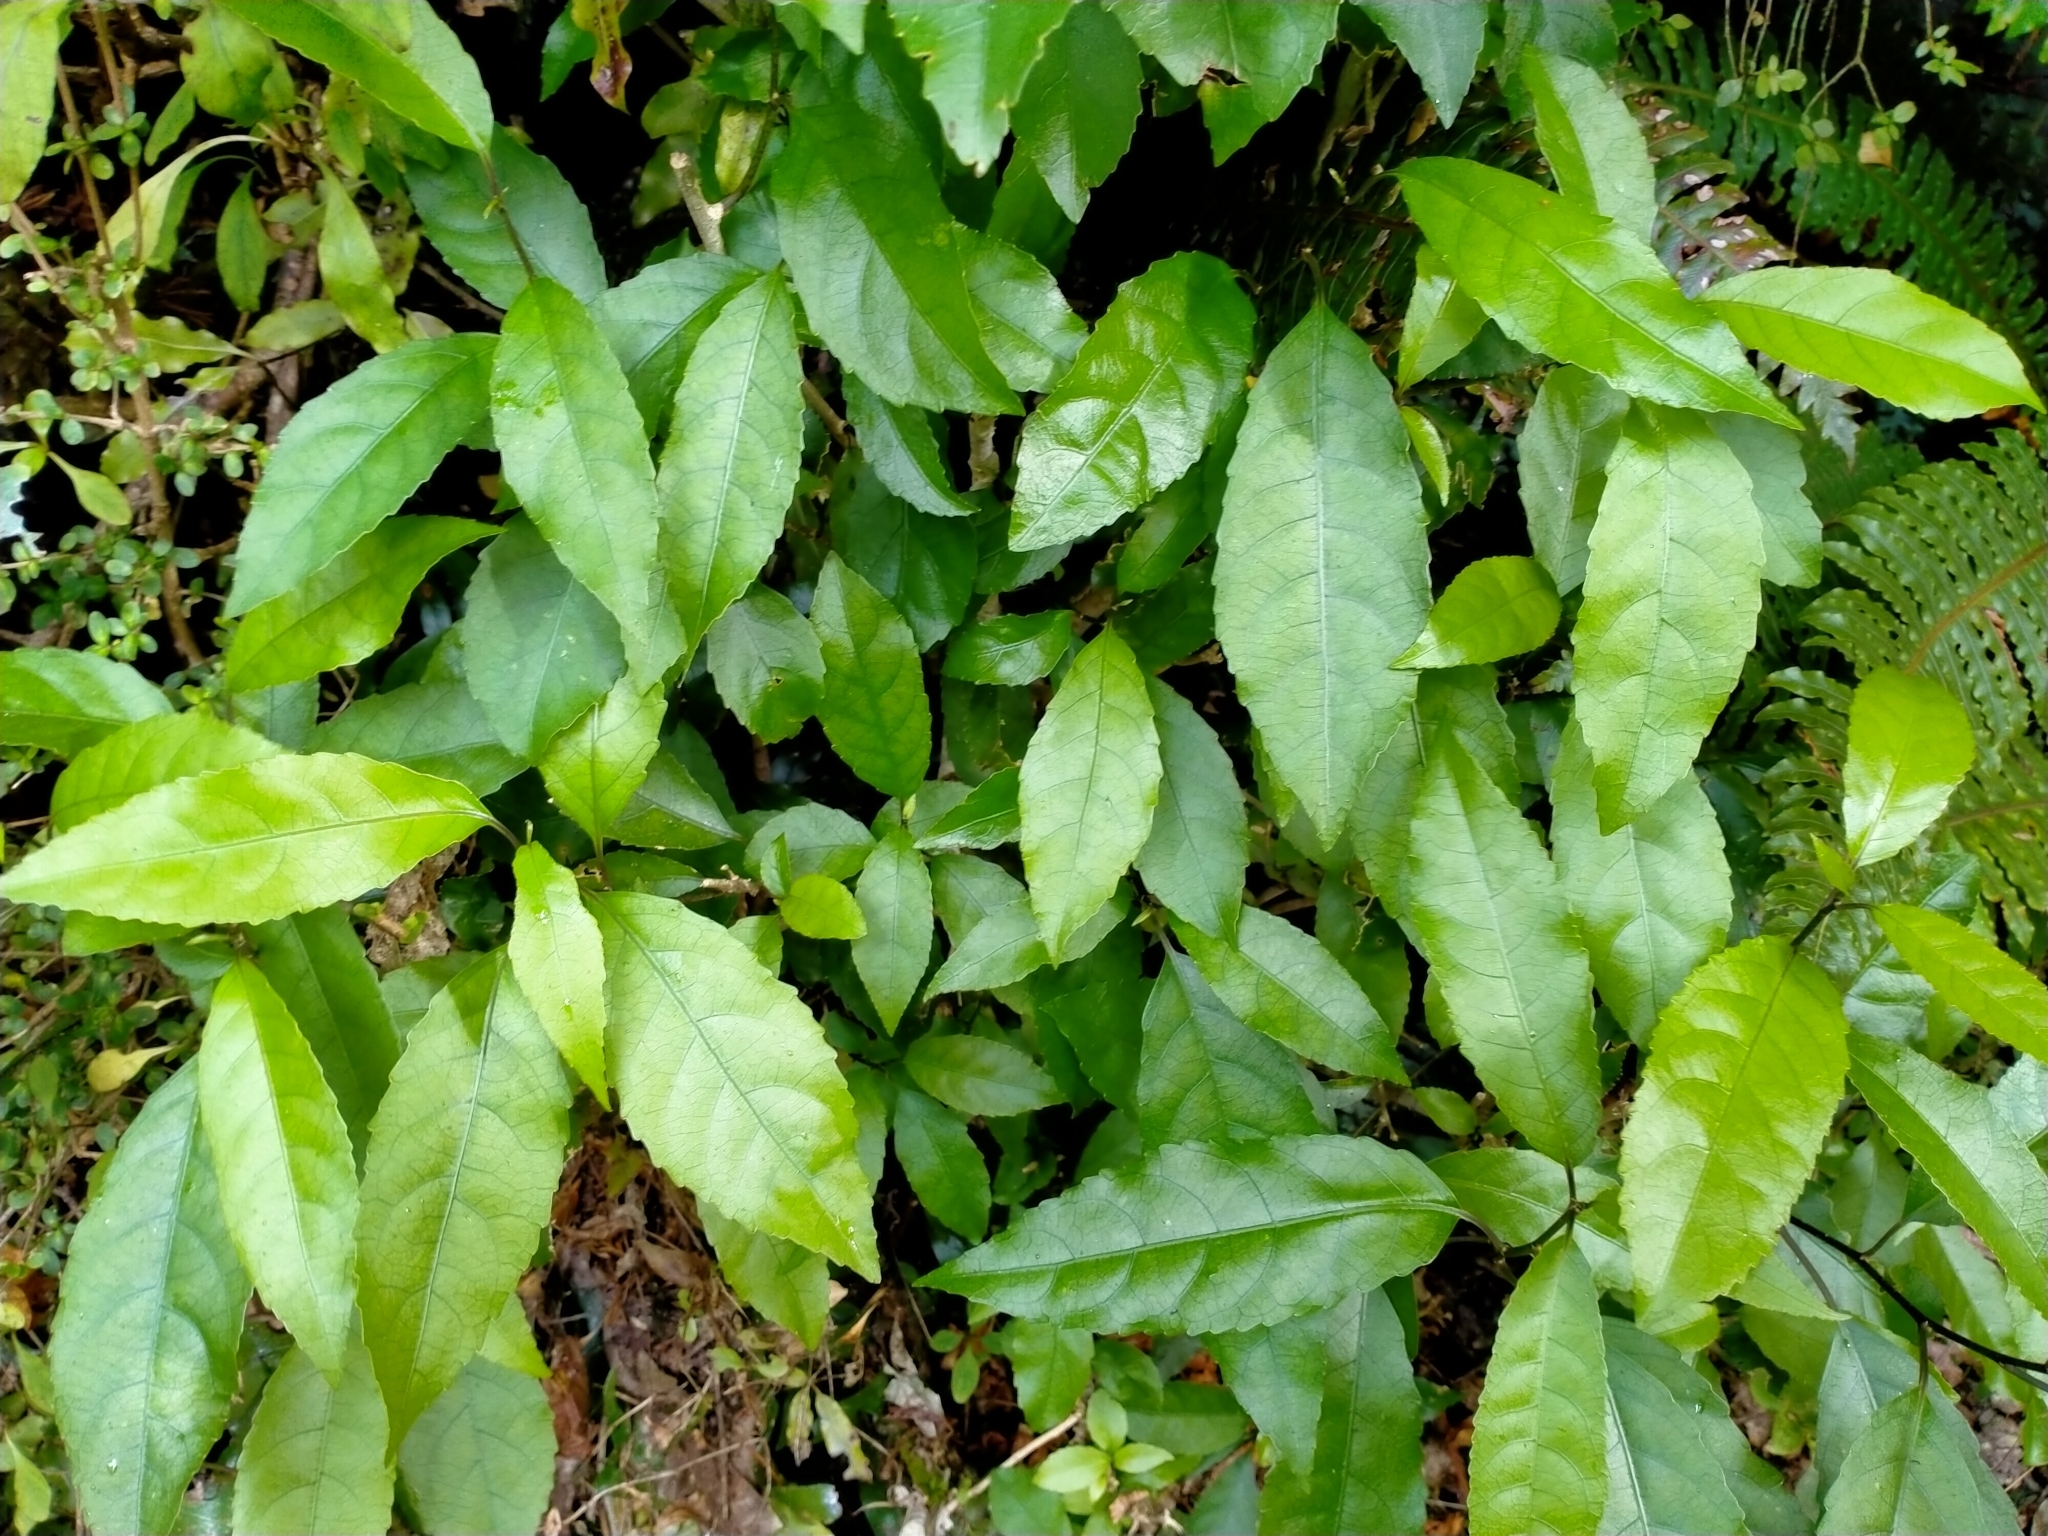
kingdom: Plantae
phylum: Tracheophyta
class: Magnoliopsida
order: Malpighiales
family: Violaceae
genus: Melicytus
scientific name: Melicytus ramiflorus
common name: Mahoe
